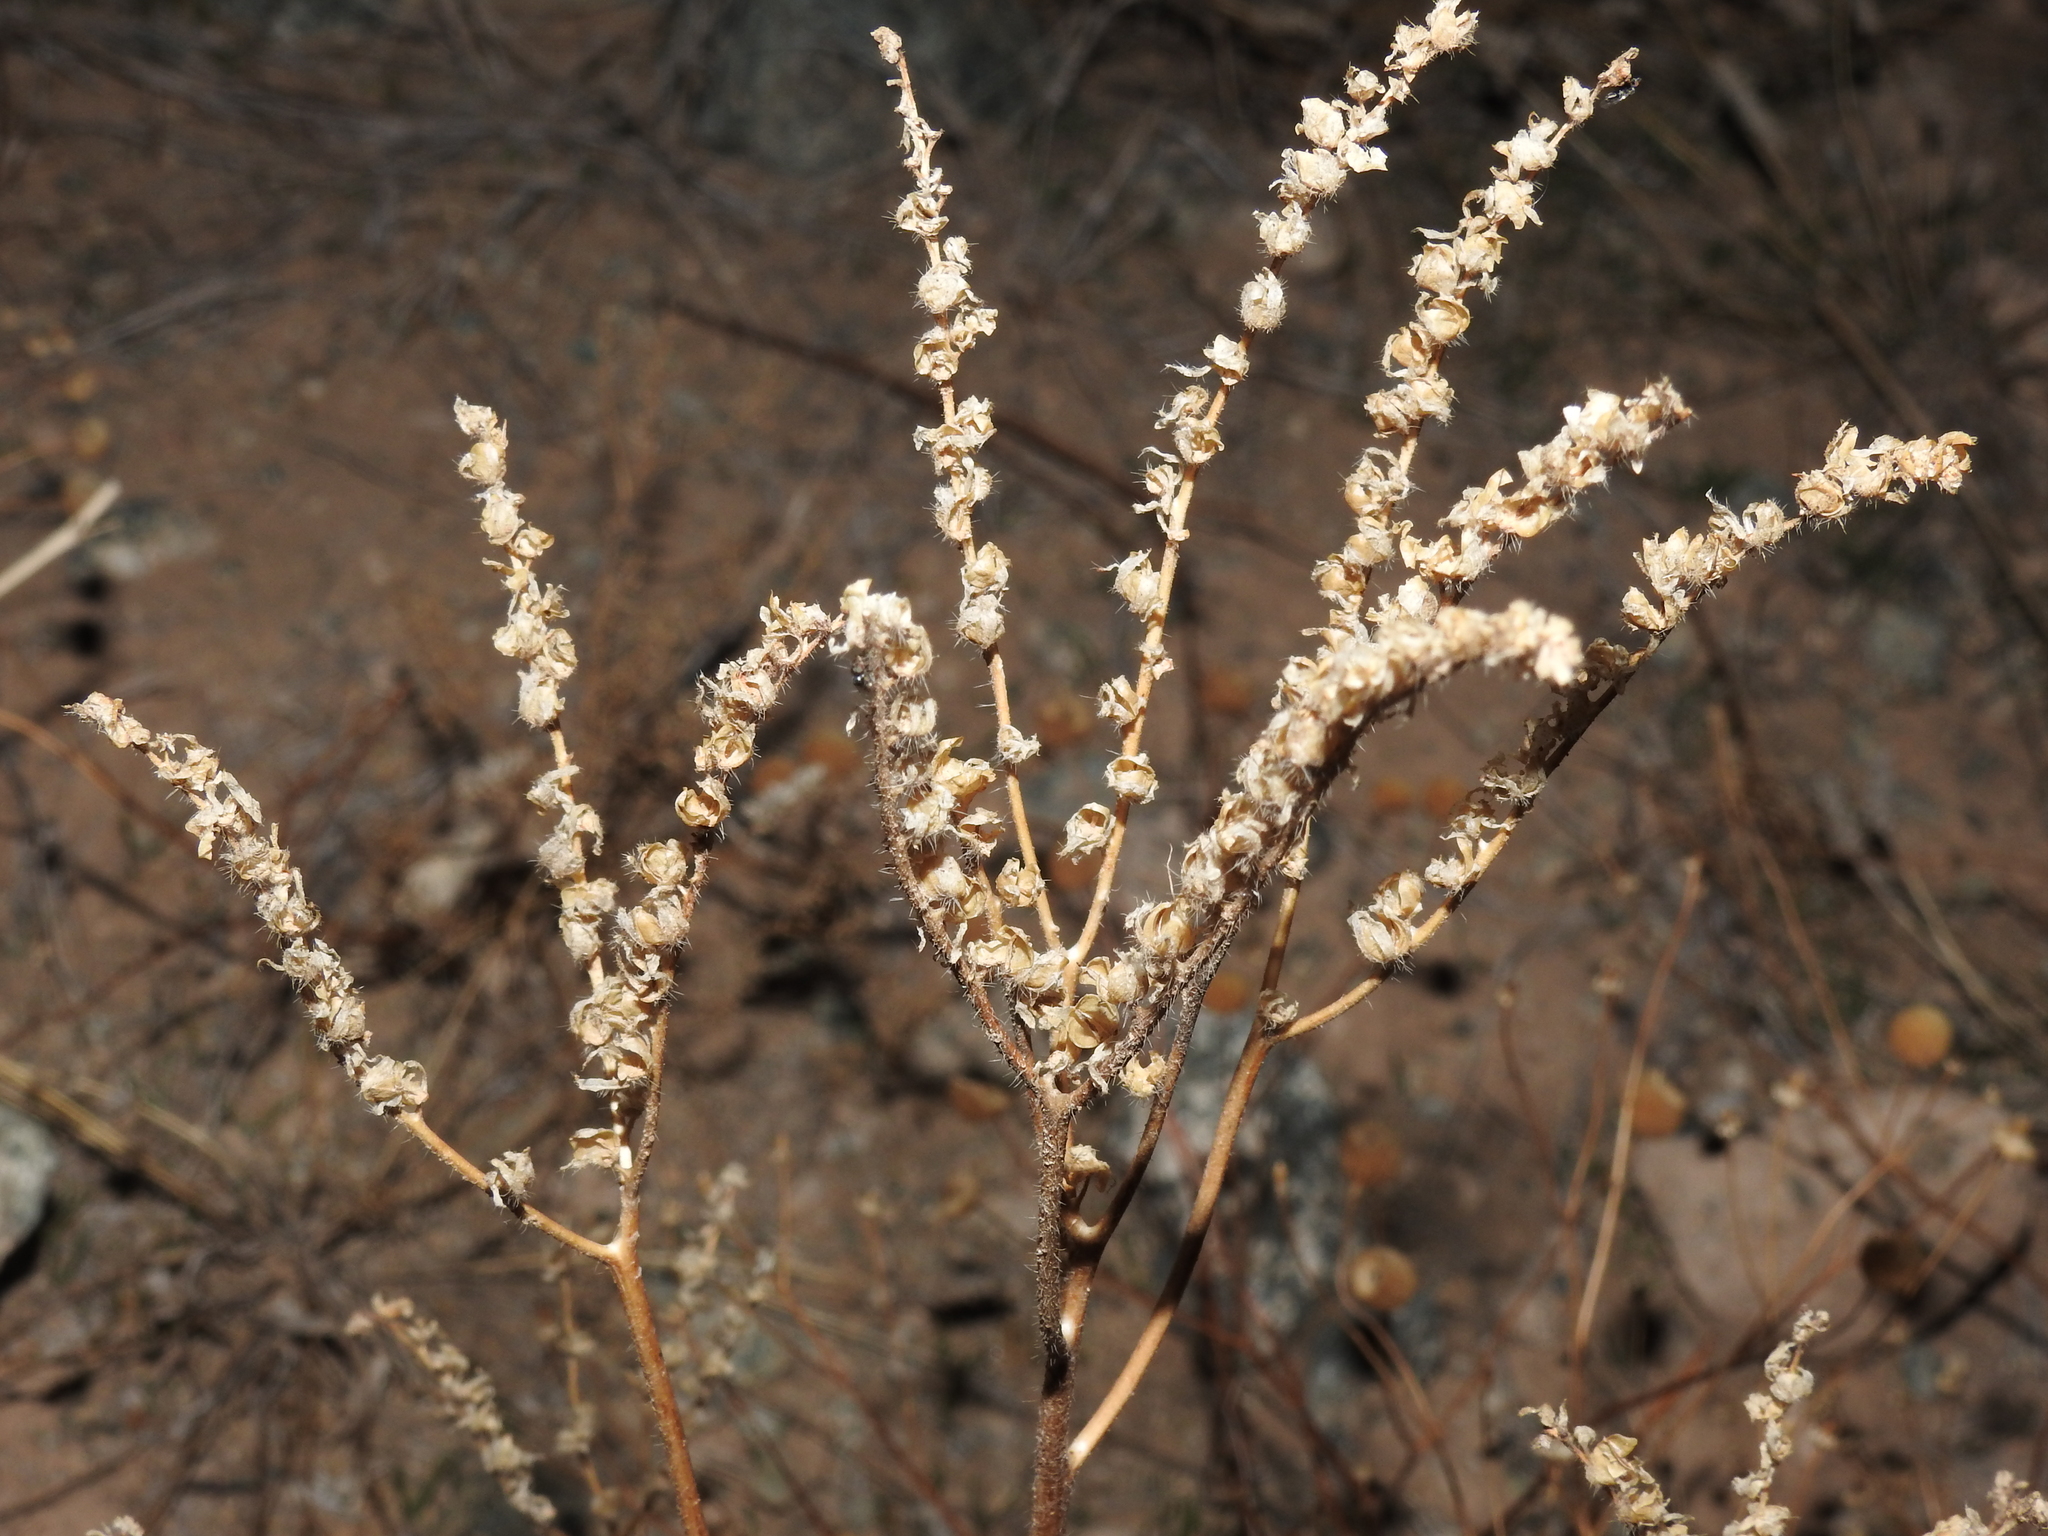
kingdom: Plantae
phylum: Tracheophyta
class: Magnoliopsida
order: Boraginales
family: Hydrophyllaceae
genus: Phacelia
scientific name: Phacelia crenulata
